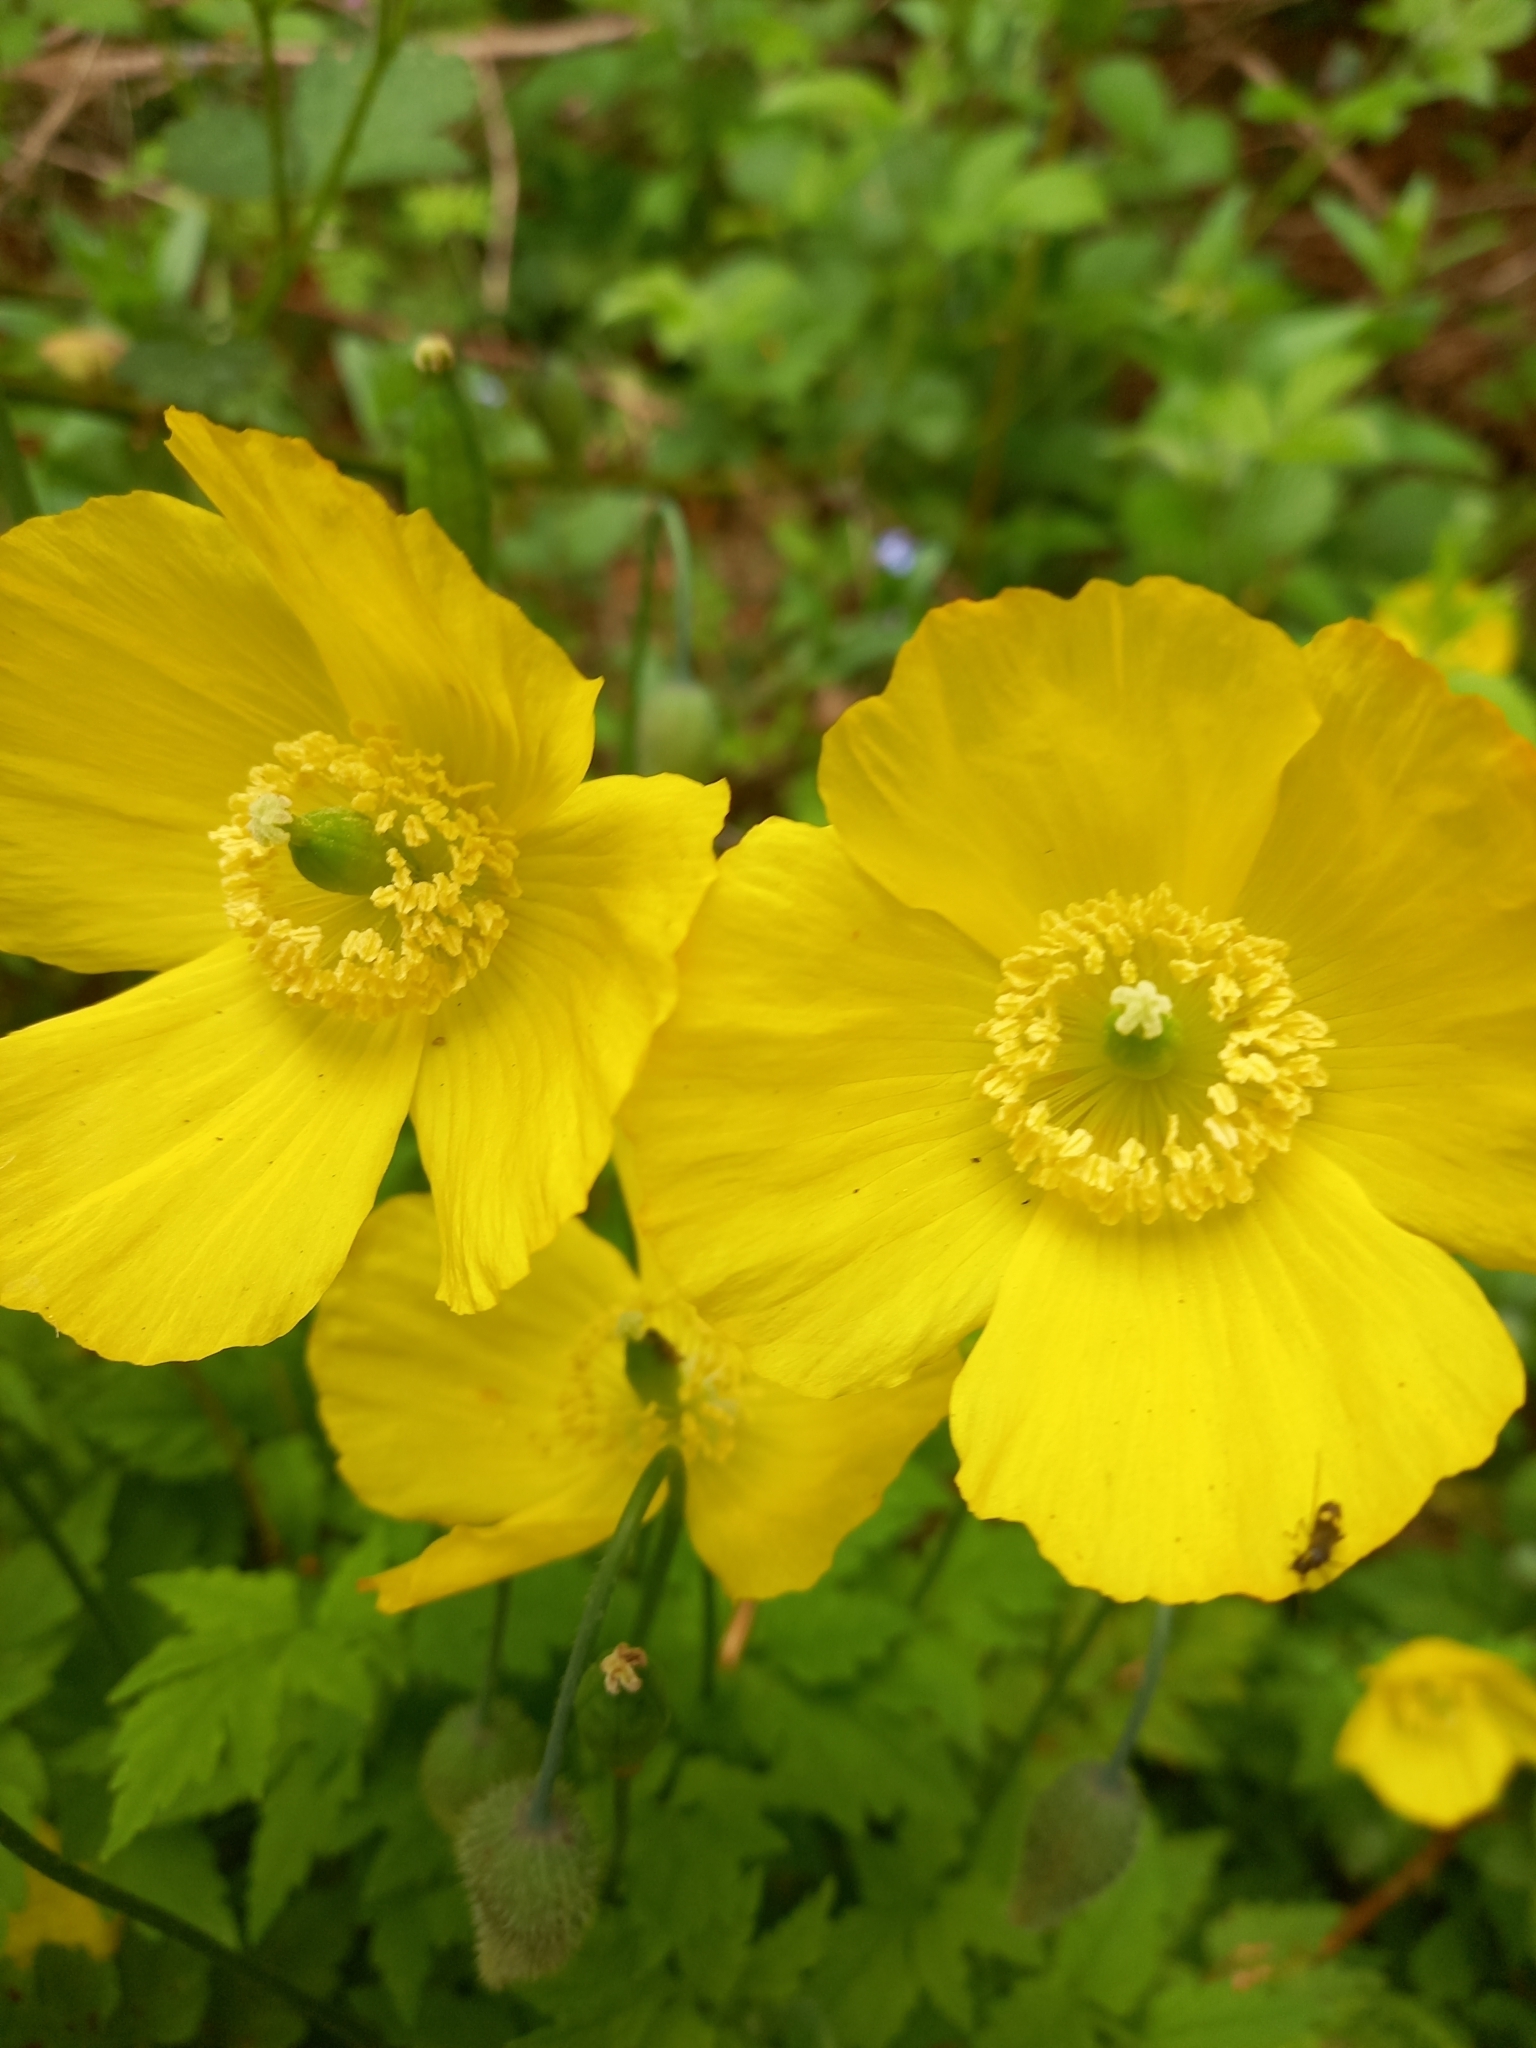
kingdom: Plantae
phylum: Tracheophyta
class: Magnoliopsida
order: Ranunculales
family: Papaveraceae
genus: Papaver
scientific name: Papaver cambricum
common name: Poppy
